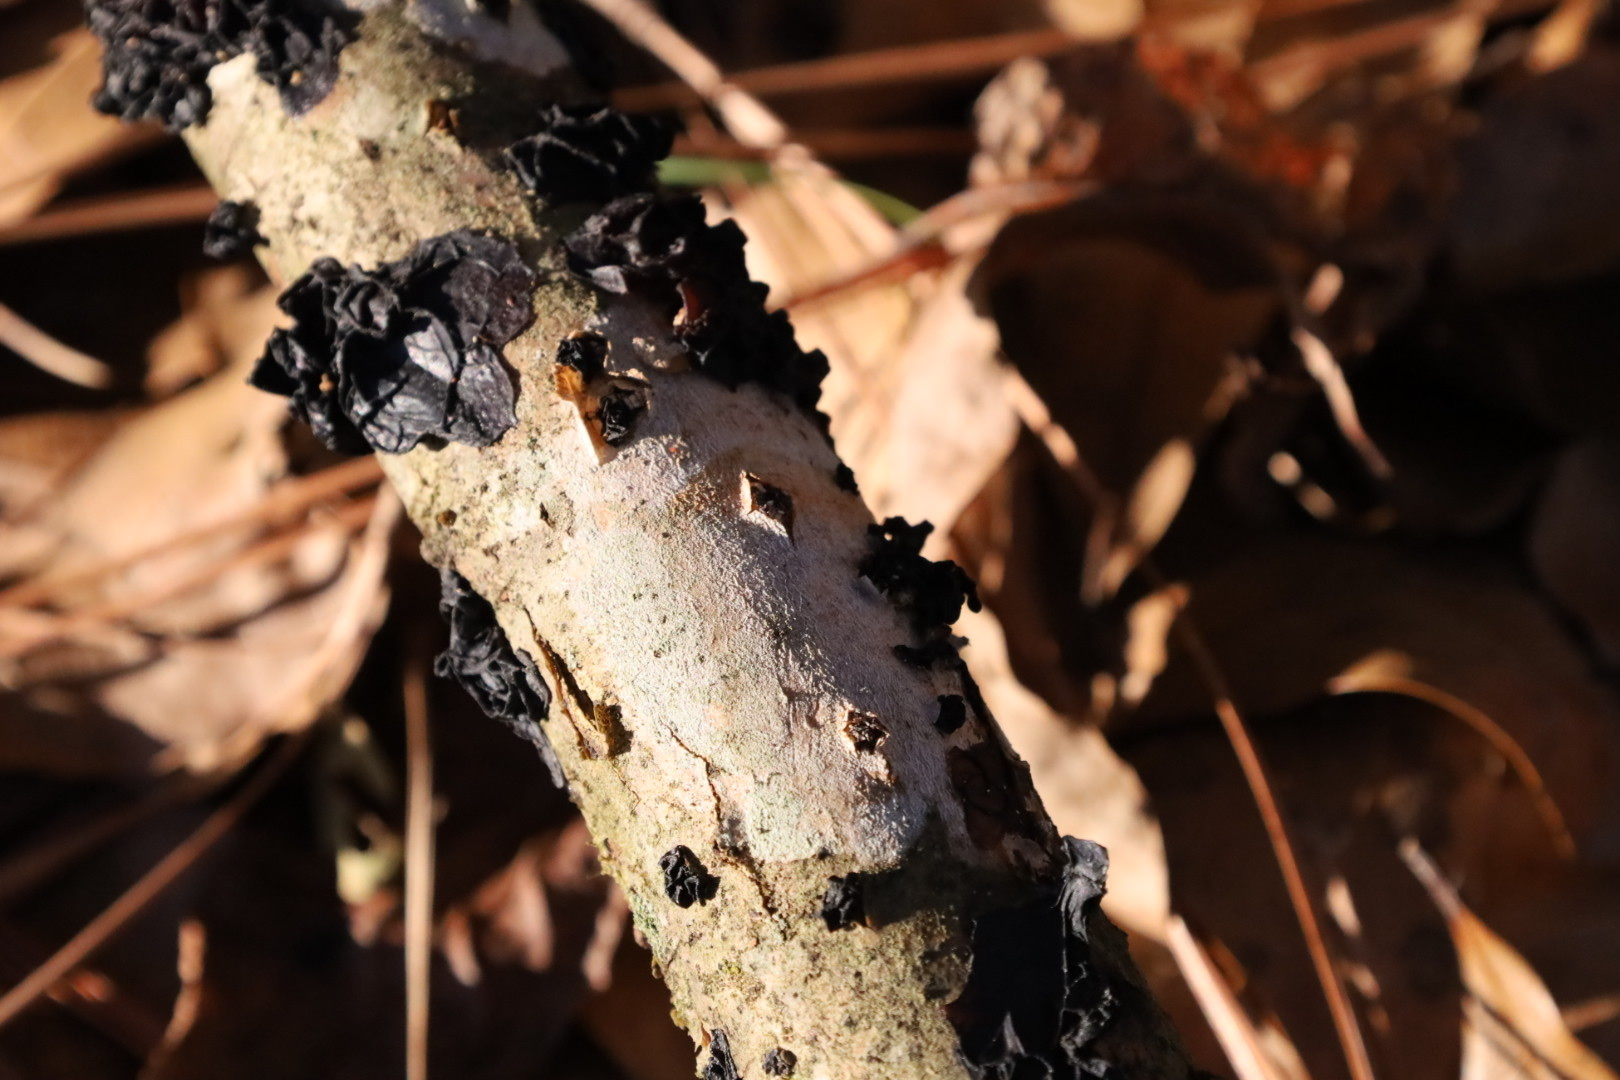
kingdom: Fungi
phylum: Basidiomycota
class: Agaricomycetes
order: Auriculariales
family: Auriculariaceae
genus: Exidia
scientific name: Exidia
